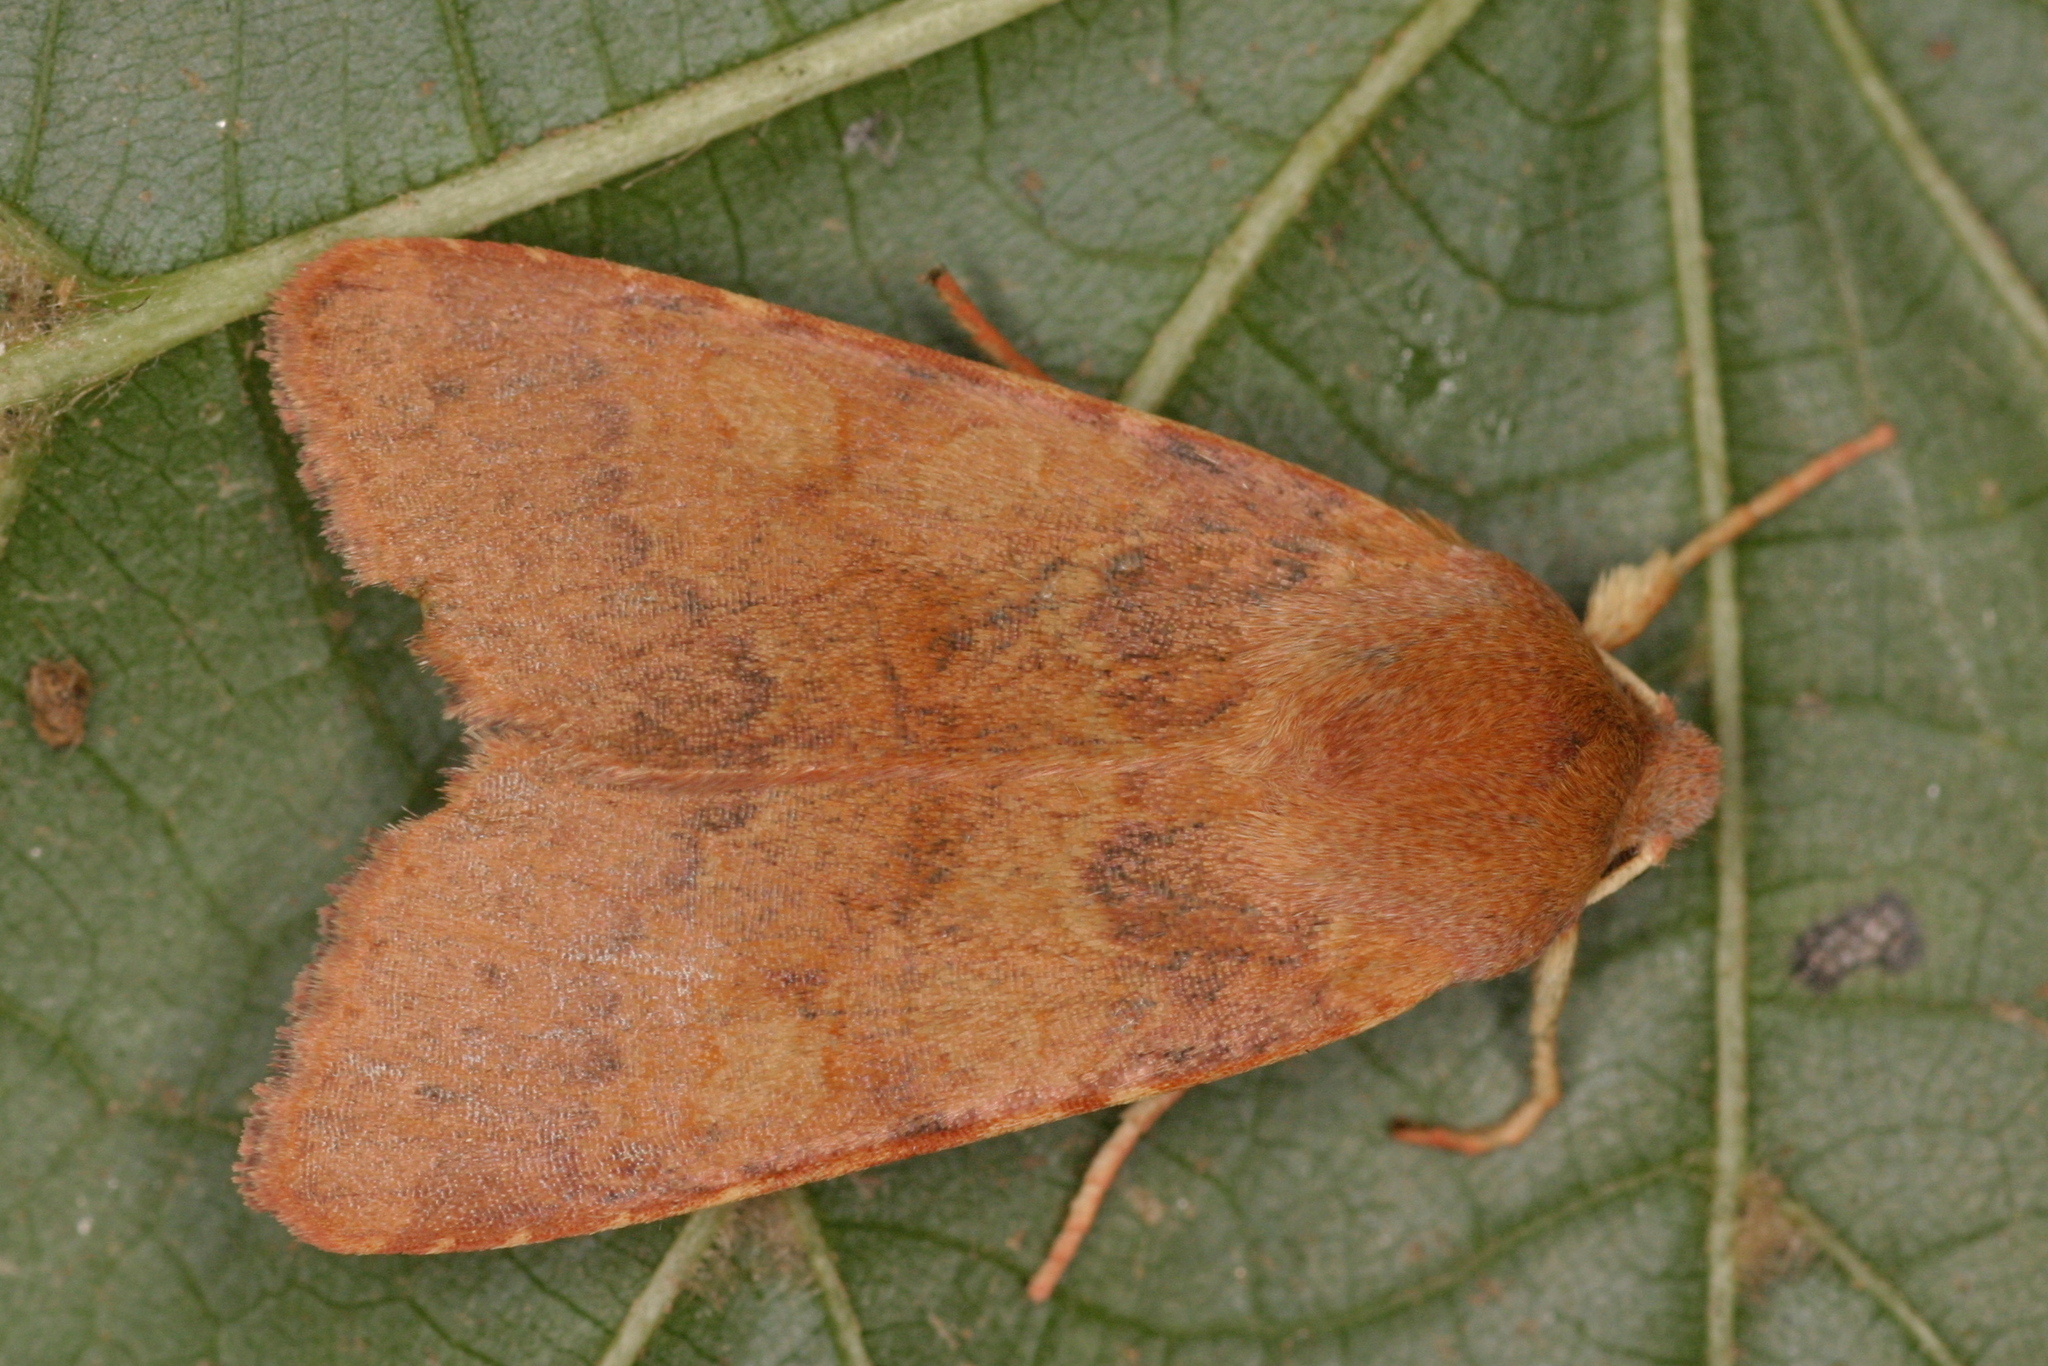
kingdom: Animalia
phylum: Arthropoda
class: Insecta
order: Lepidoptera
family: Noctuidae
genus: Agrochola
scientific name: Agrochola helvola
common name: Flounced chestnut
